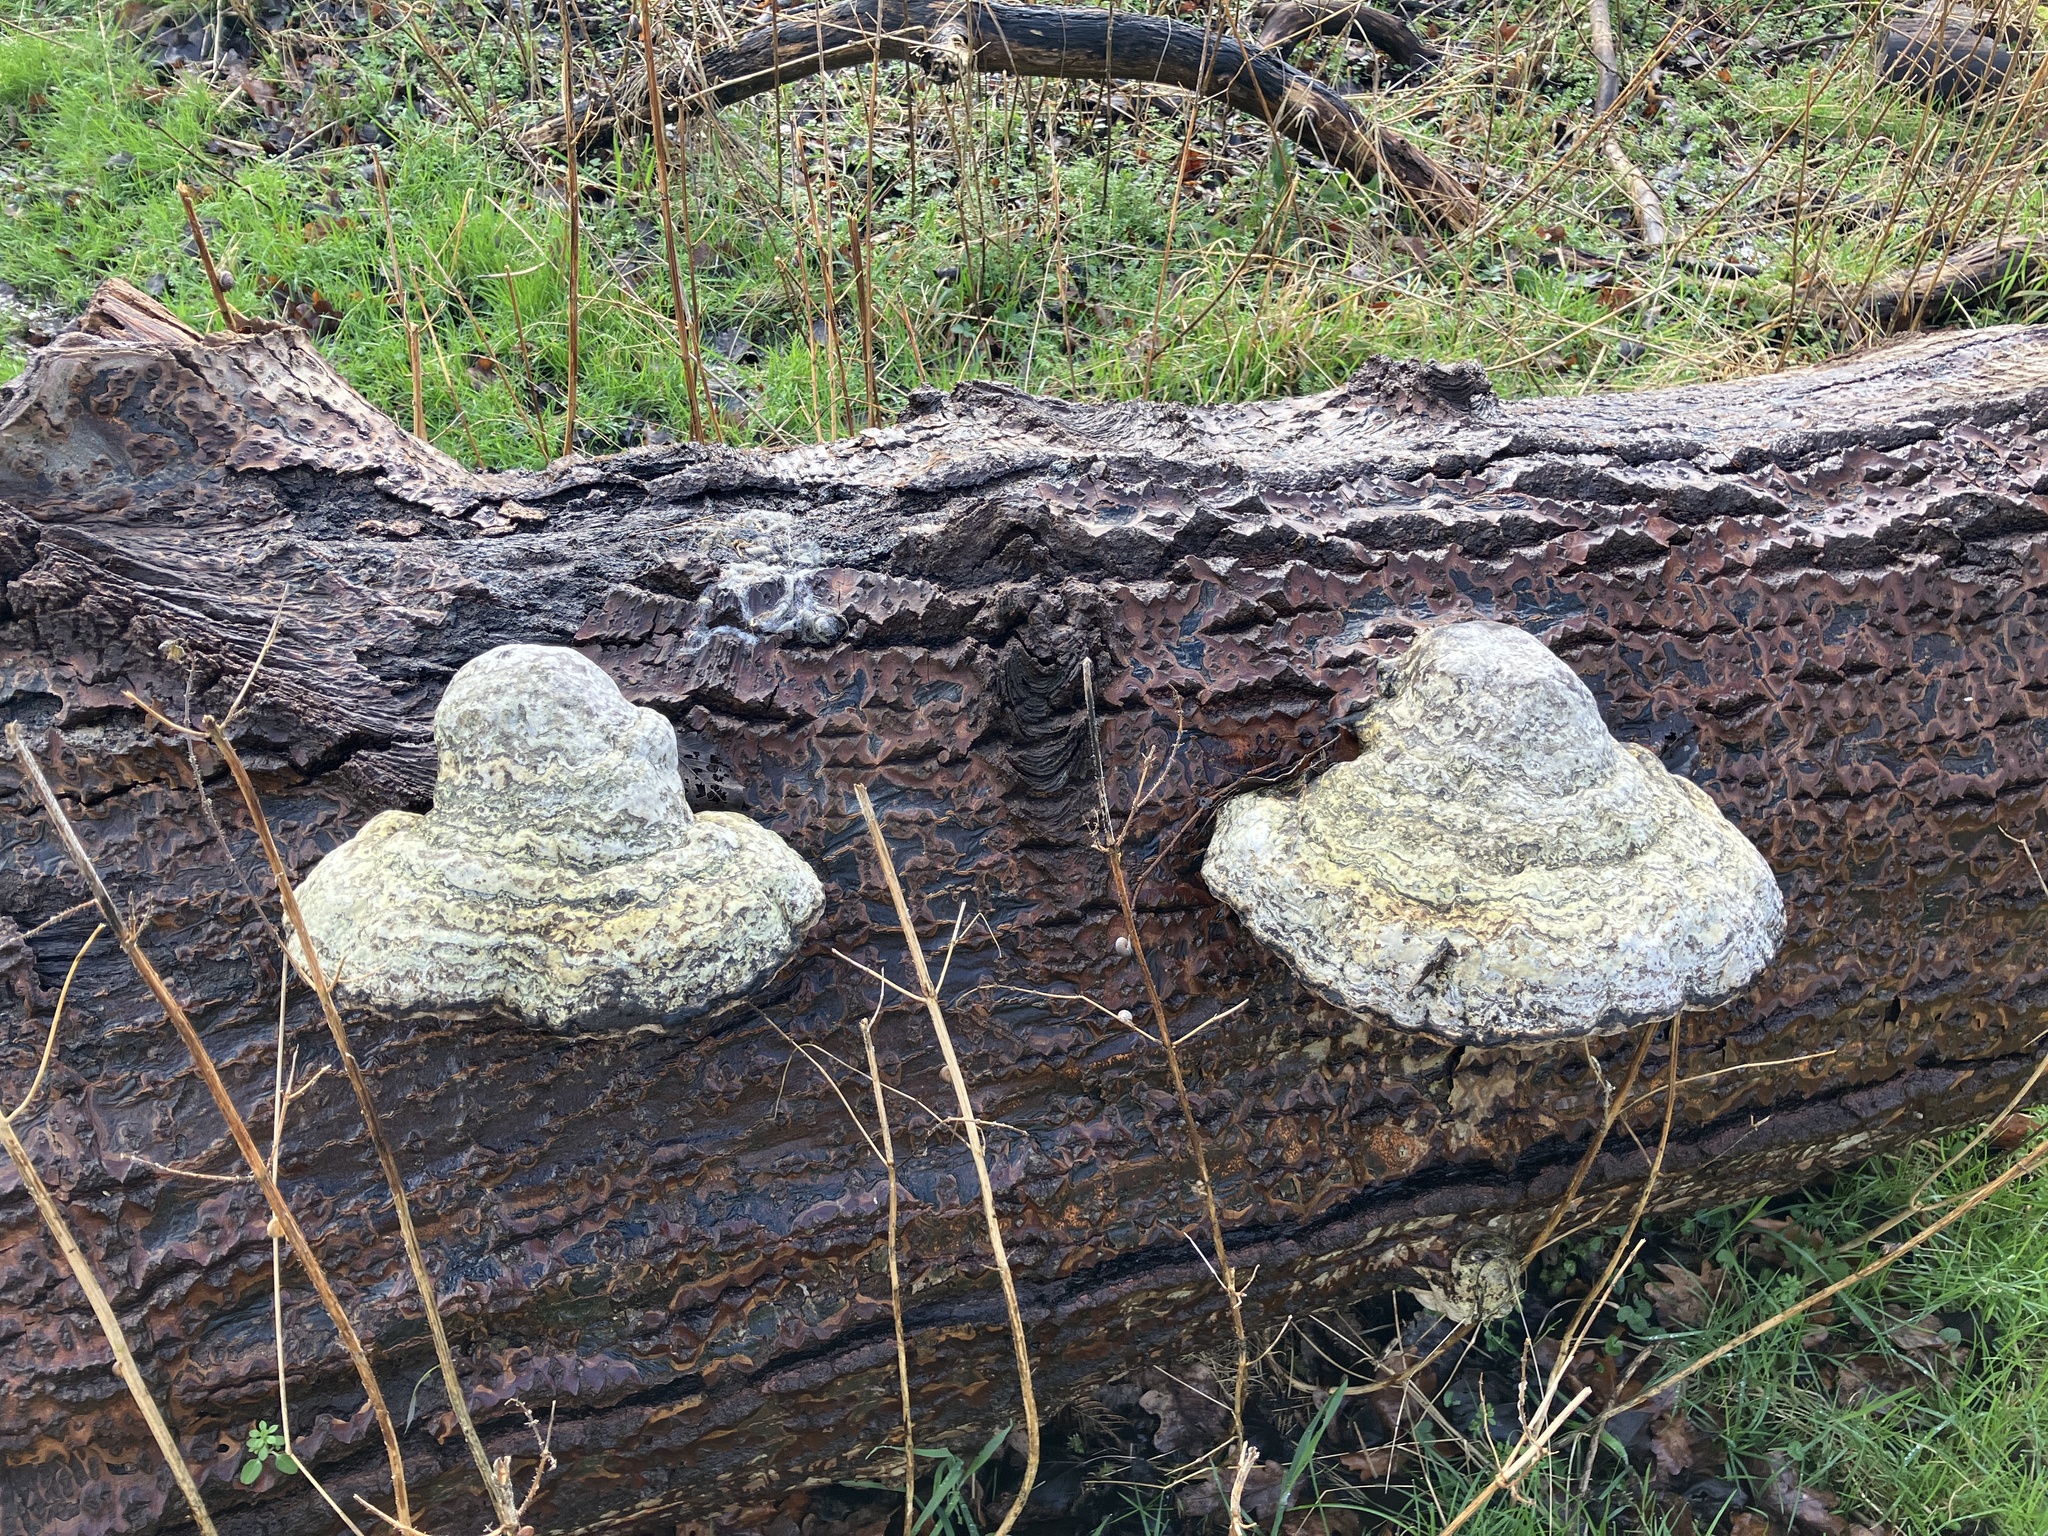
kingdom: Fungi
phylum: Basidiomycota
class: Agaricomycetes
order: Polyporales
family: Polyporaceae
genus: Fomes
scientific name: Fomes fomentarius
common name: Hoof fungus
